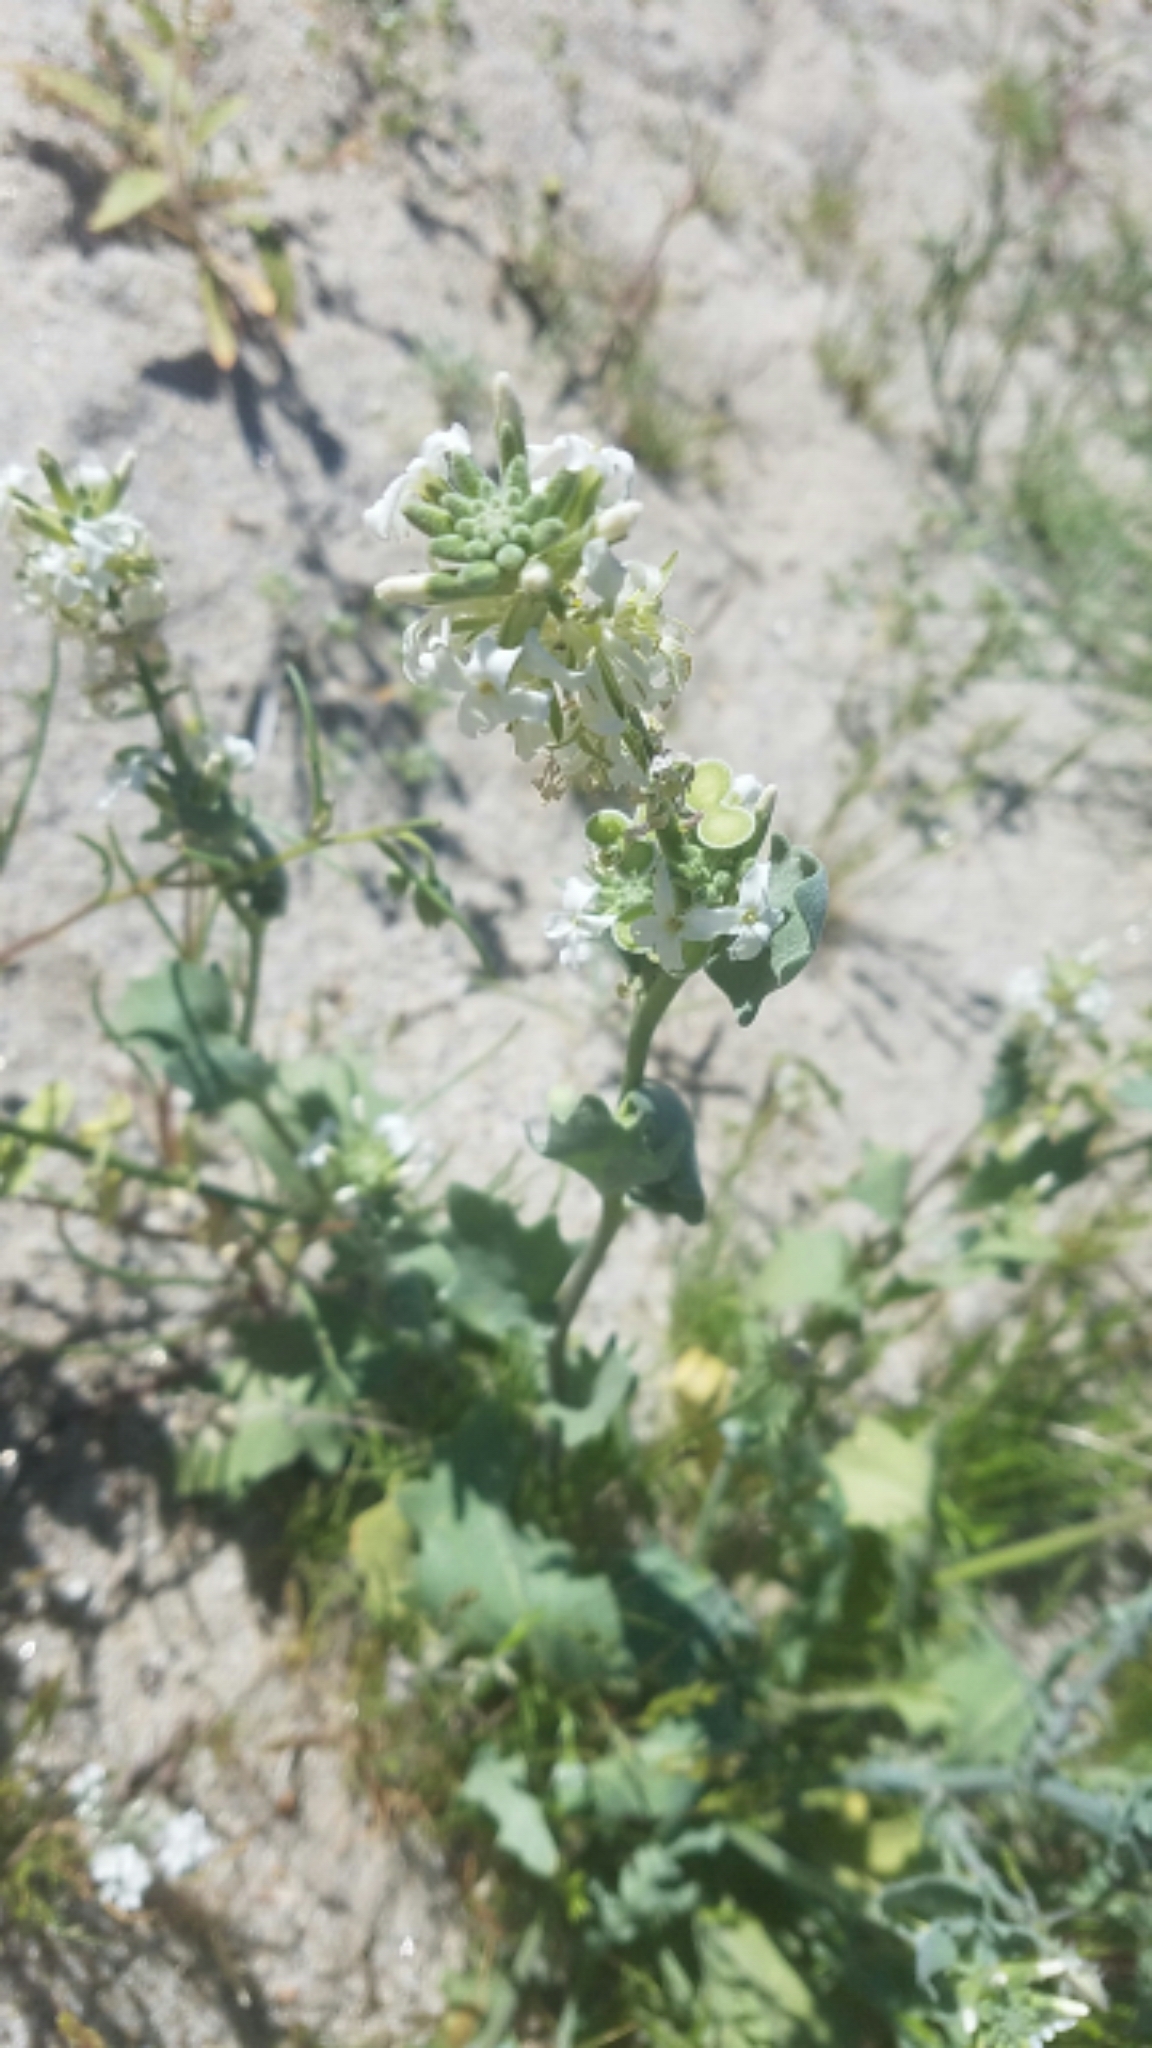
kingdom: Plantae
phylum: Tracheophyta
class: Magnoliopsida
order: Brassicales
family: Brassicaceae
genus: Dithyrea
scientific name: Dithyrea californica
